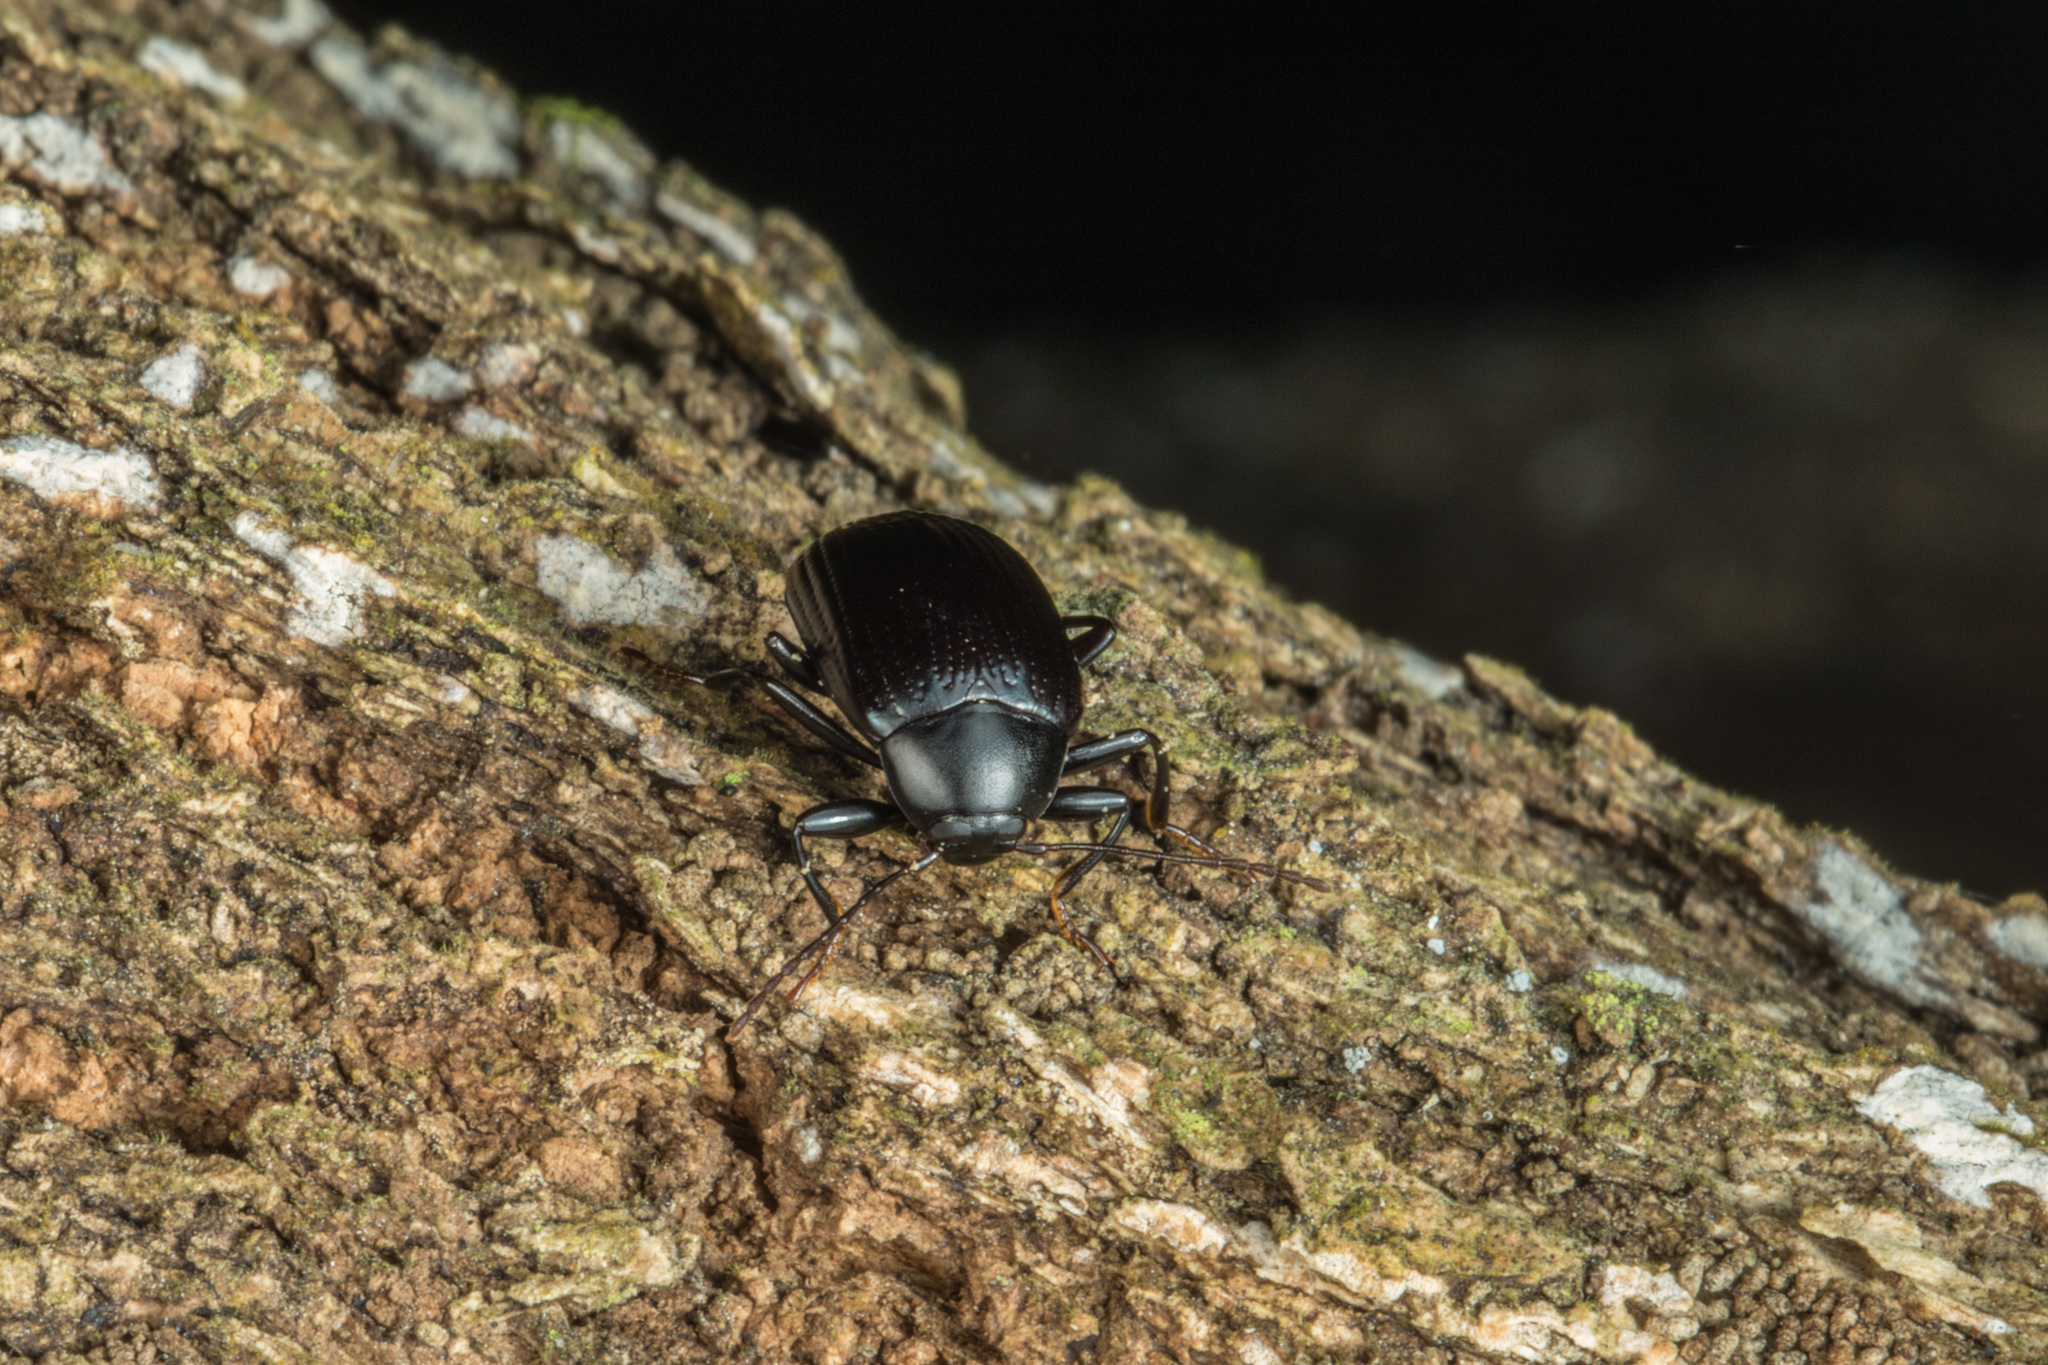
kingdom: Animalia
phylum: Arthropoda
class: Insecta
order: Coleoptera
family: Tenebrionidae
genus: Amarygmus
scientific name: Amarygmus
